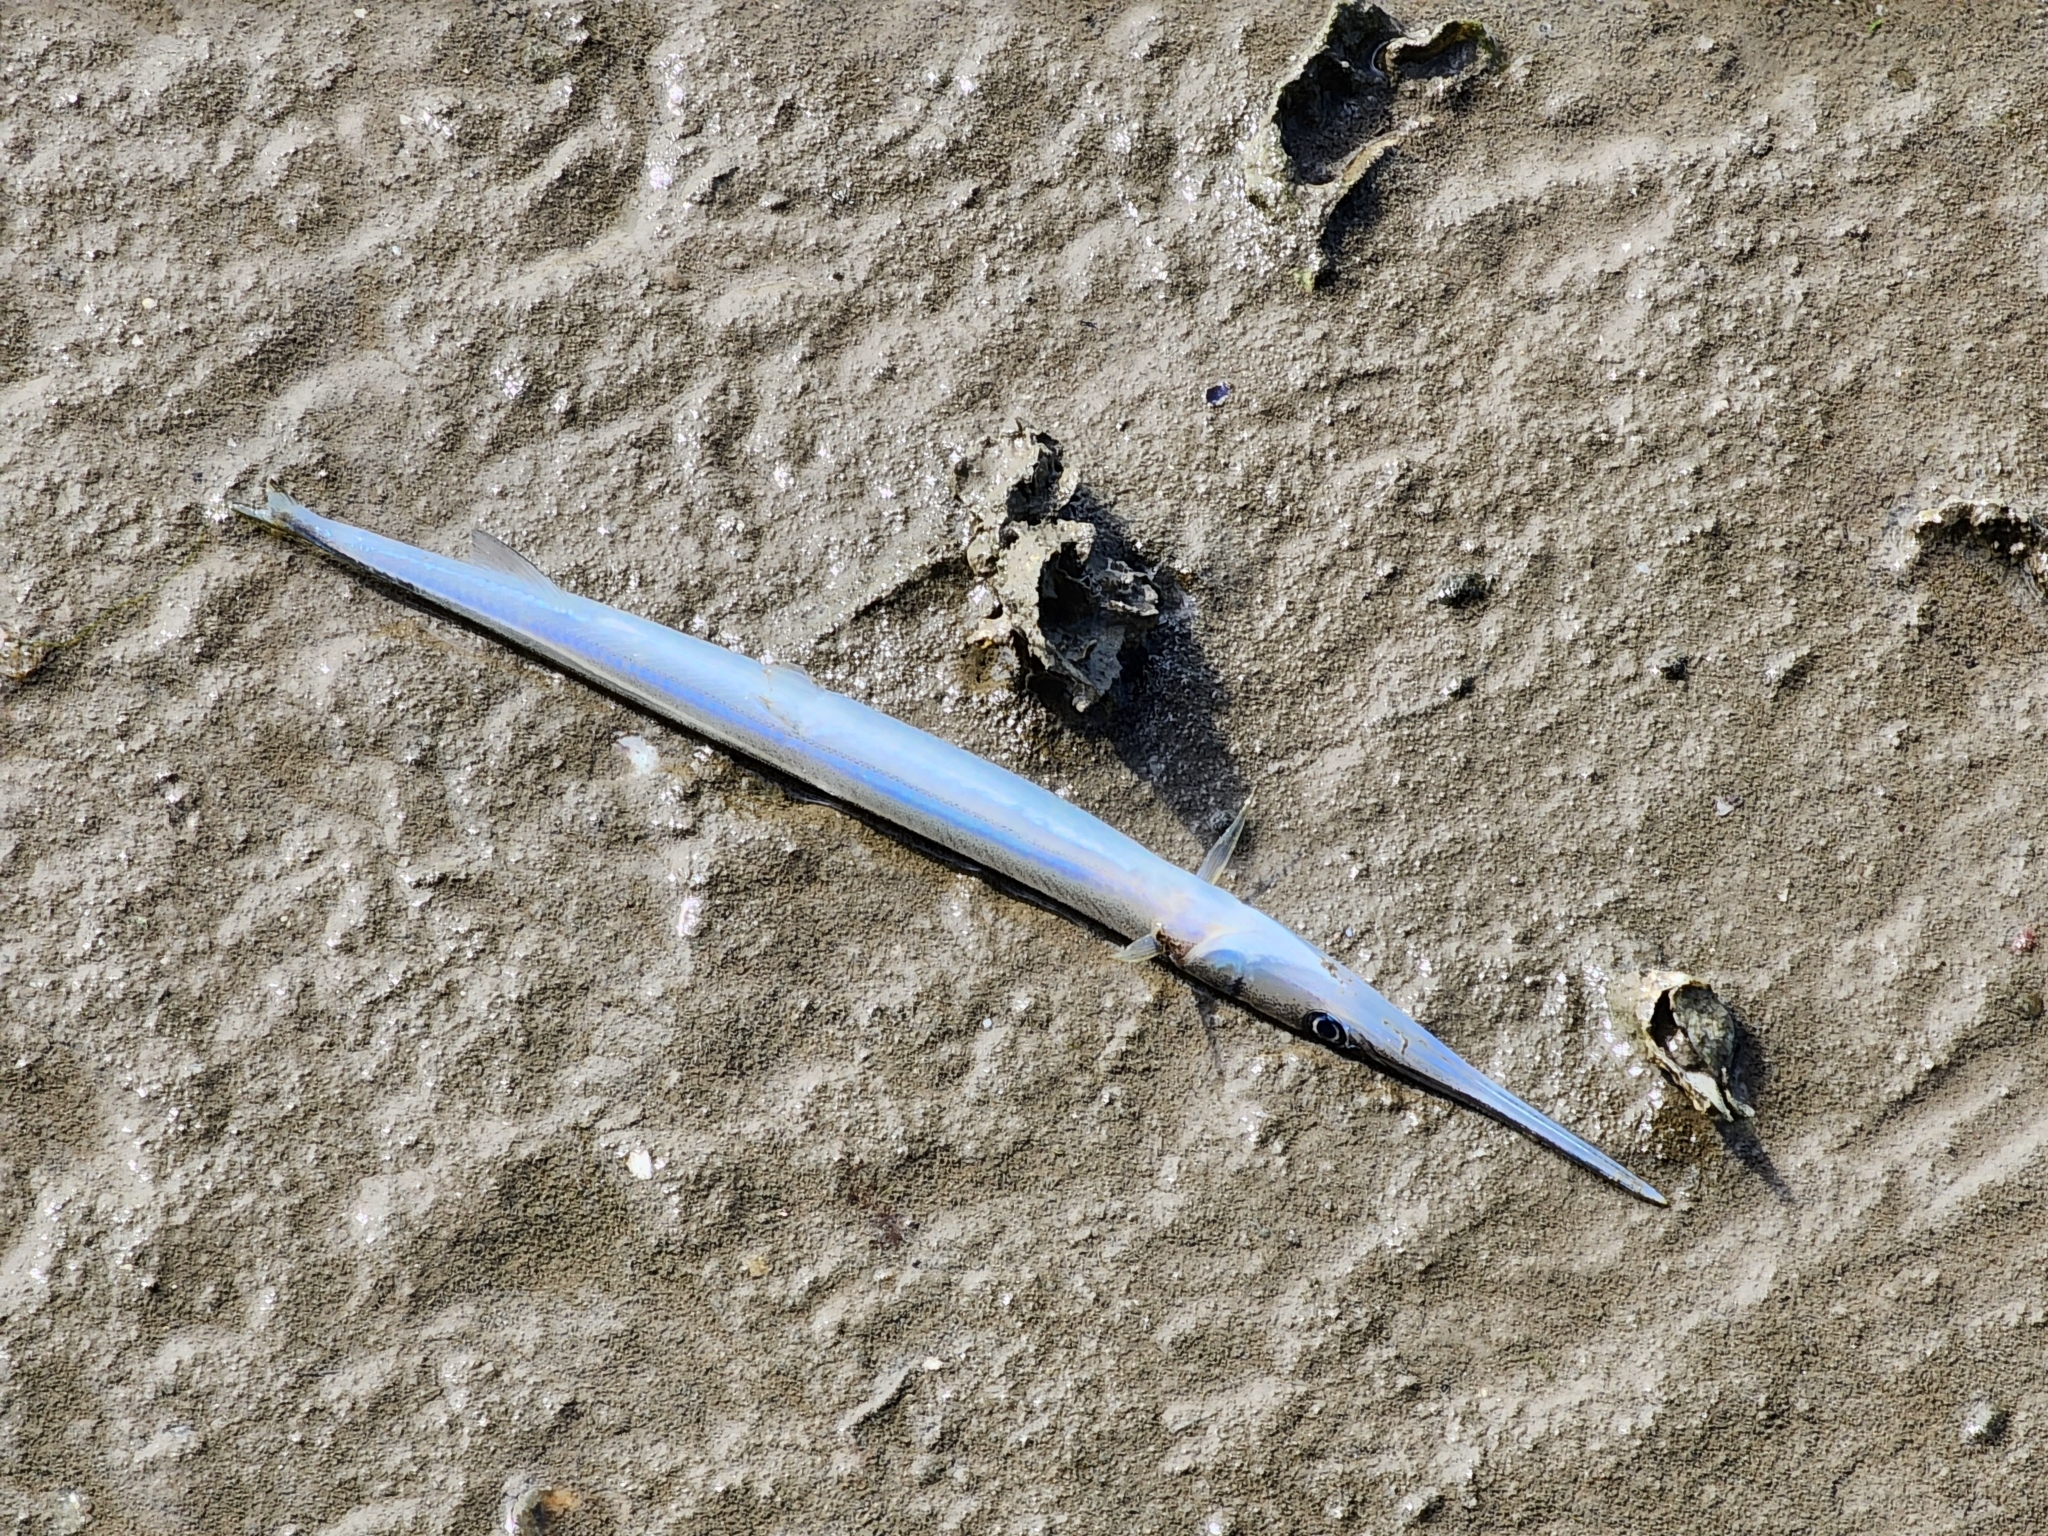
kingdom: Animalia
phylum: Chordata
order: Beloniformes
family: Belonidae
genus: Strongylura
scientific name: Strongylura marina
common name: Atlantic needlefish
